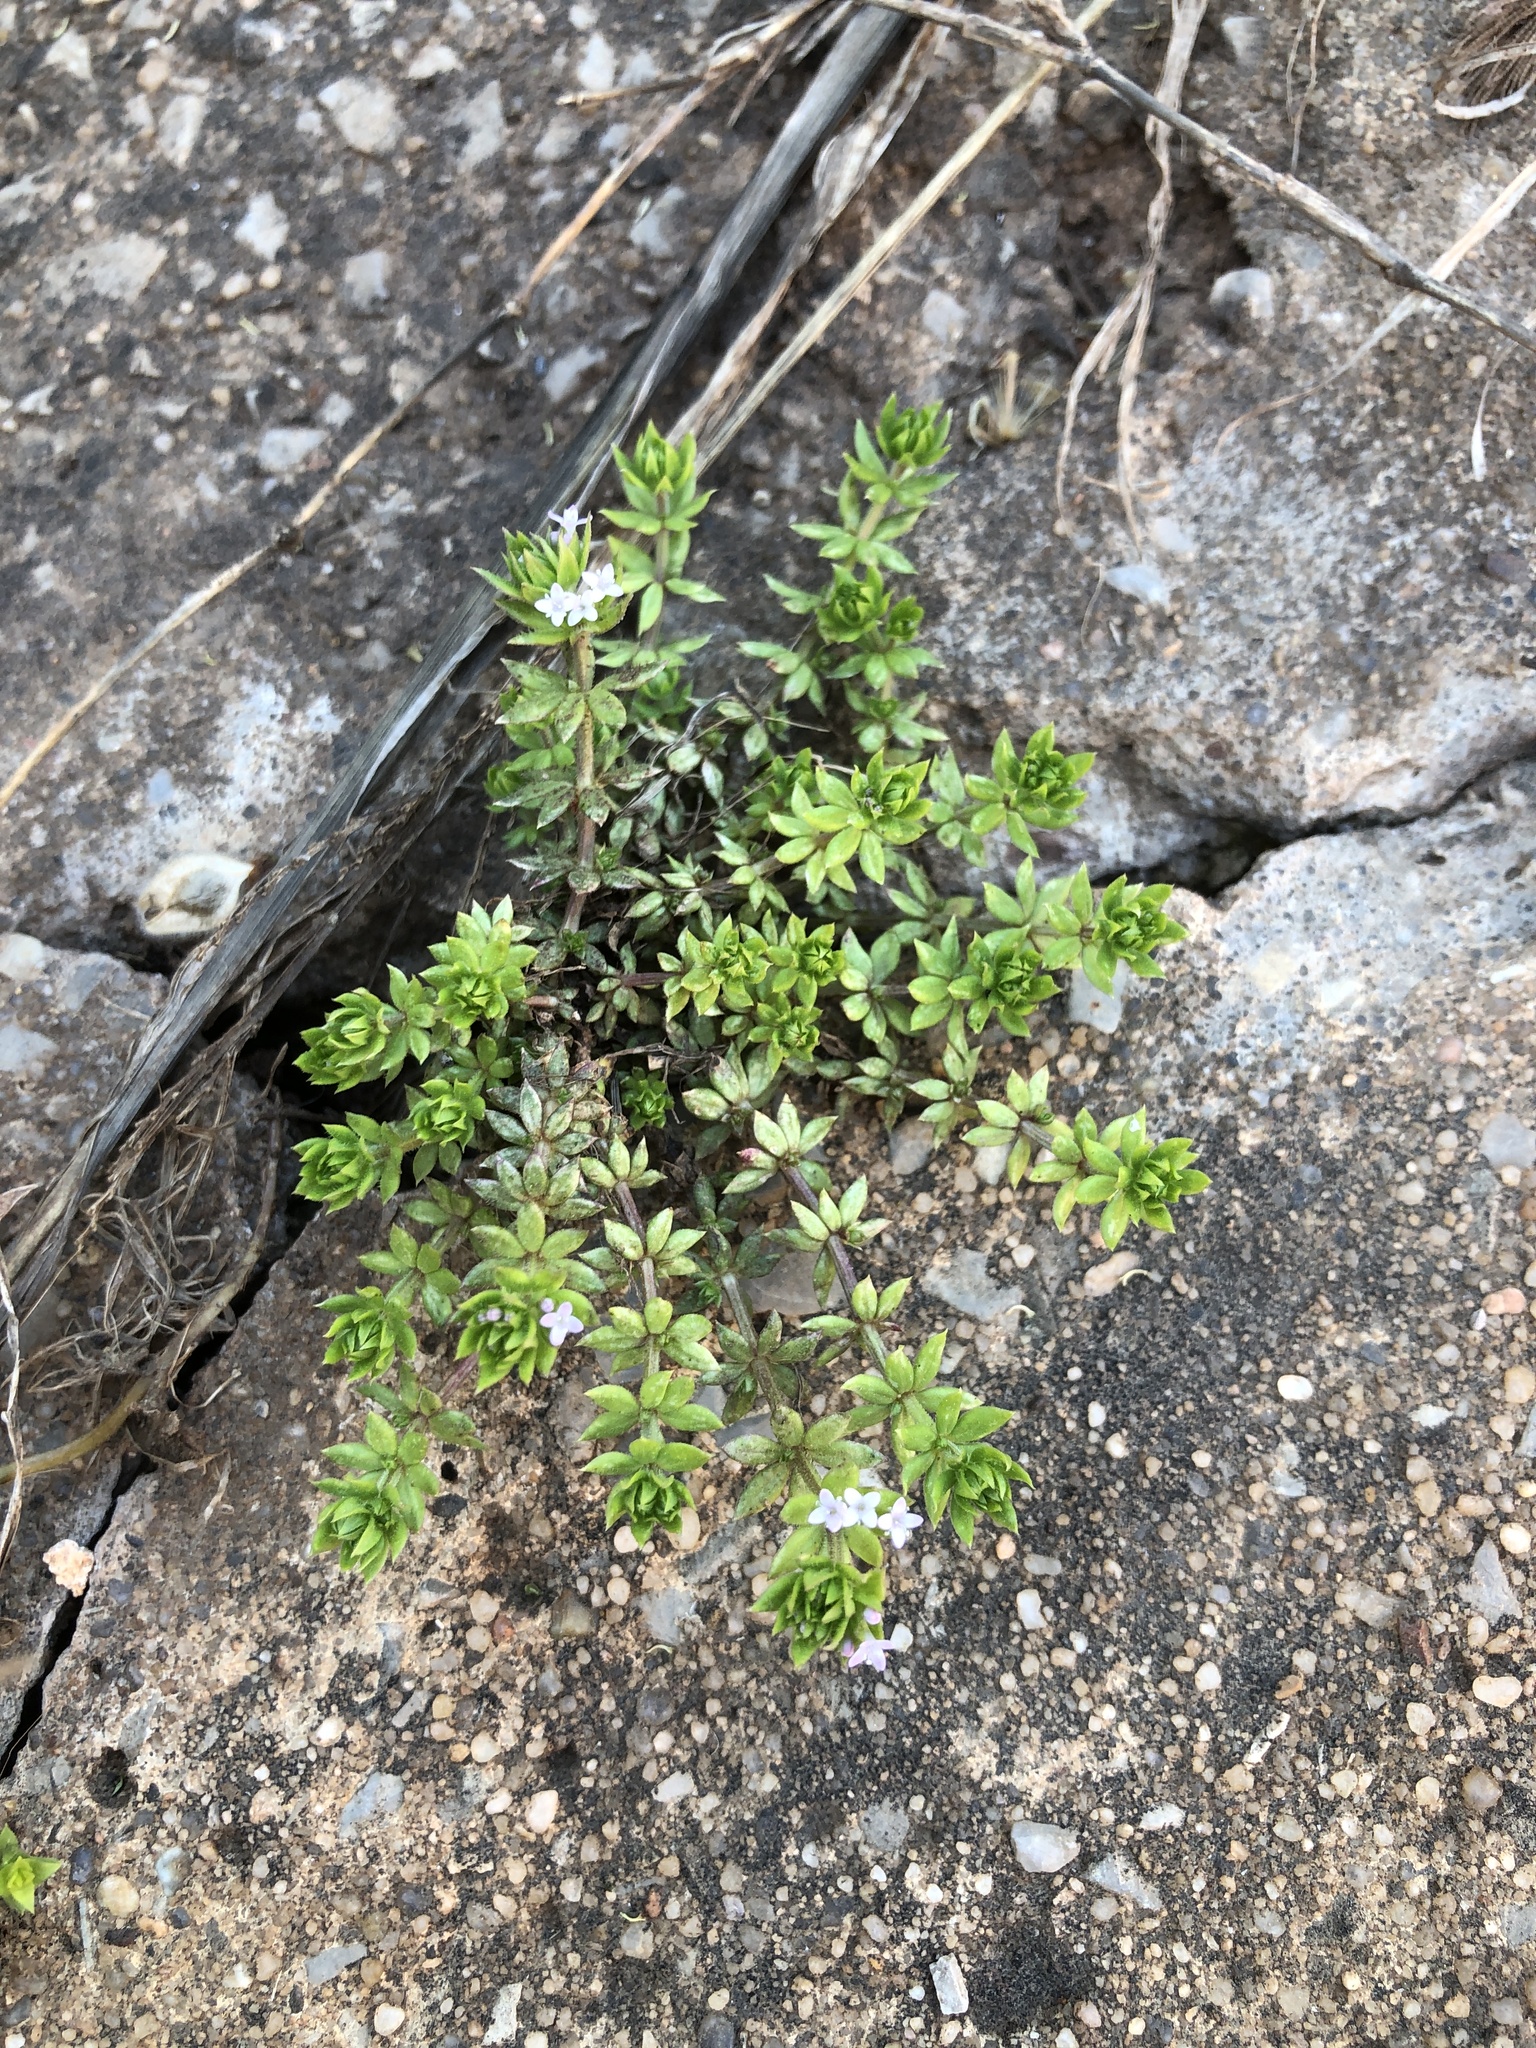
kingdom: Plantae
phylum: Tracheophyta
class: Magnoliopsida
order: Gentianales
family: Rubiaceae
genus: Sherardia
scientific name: Sherardia arvensis
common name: Field madder
